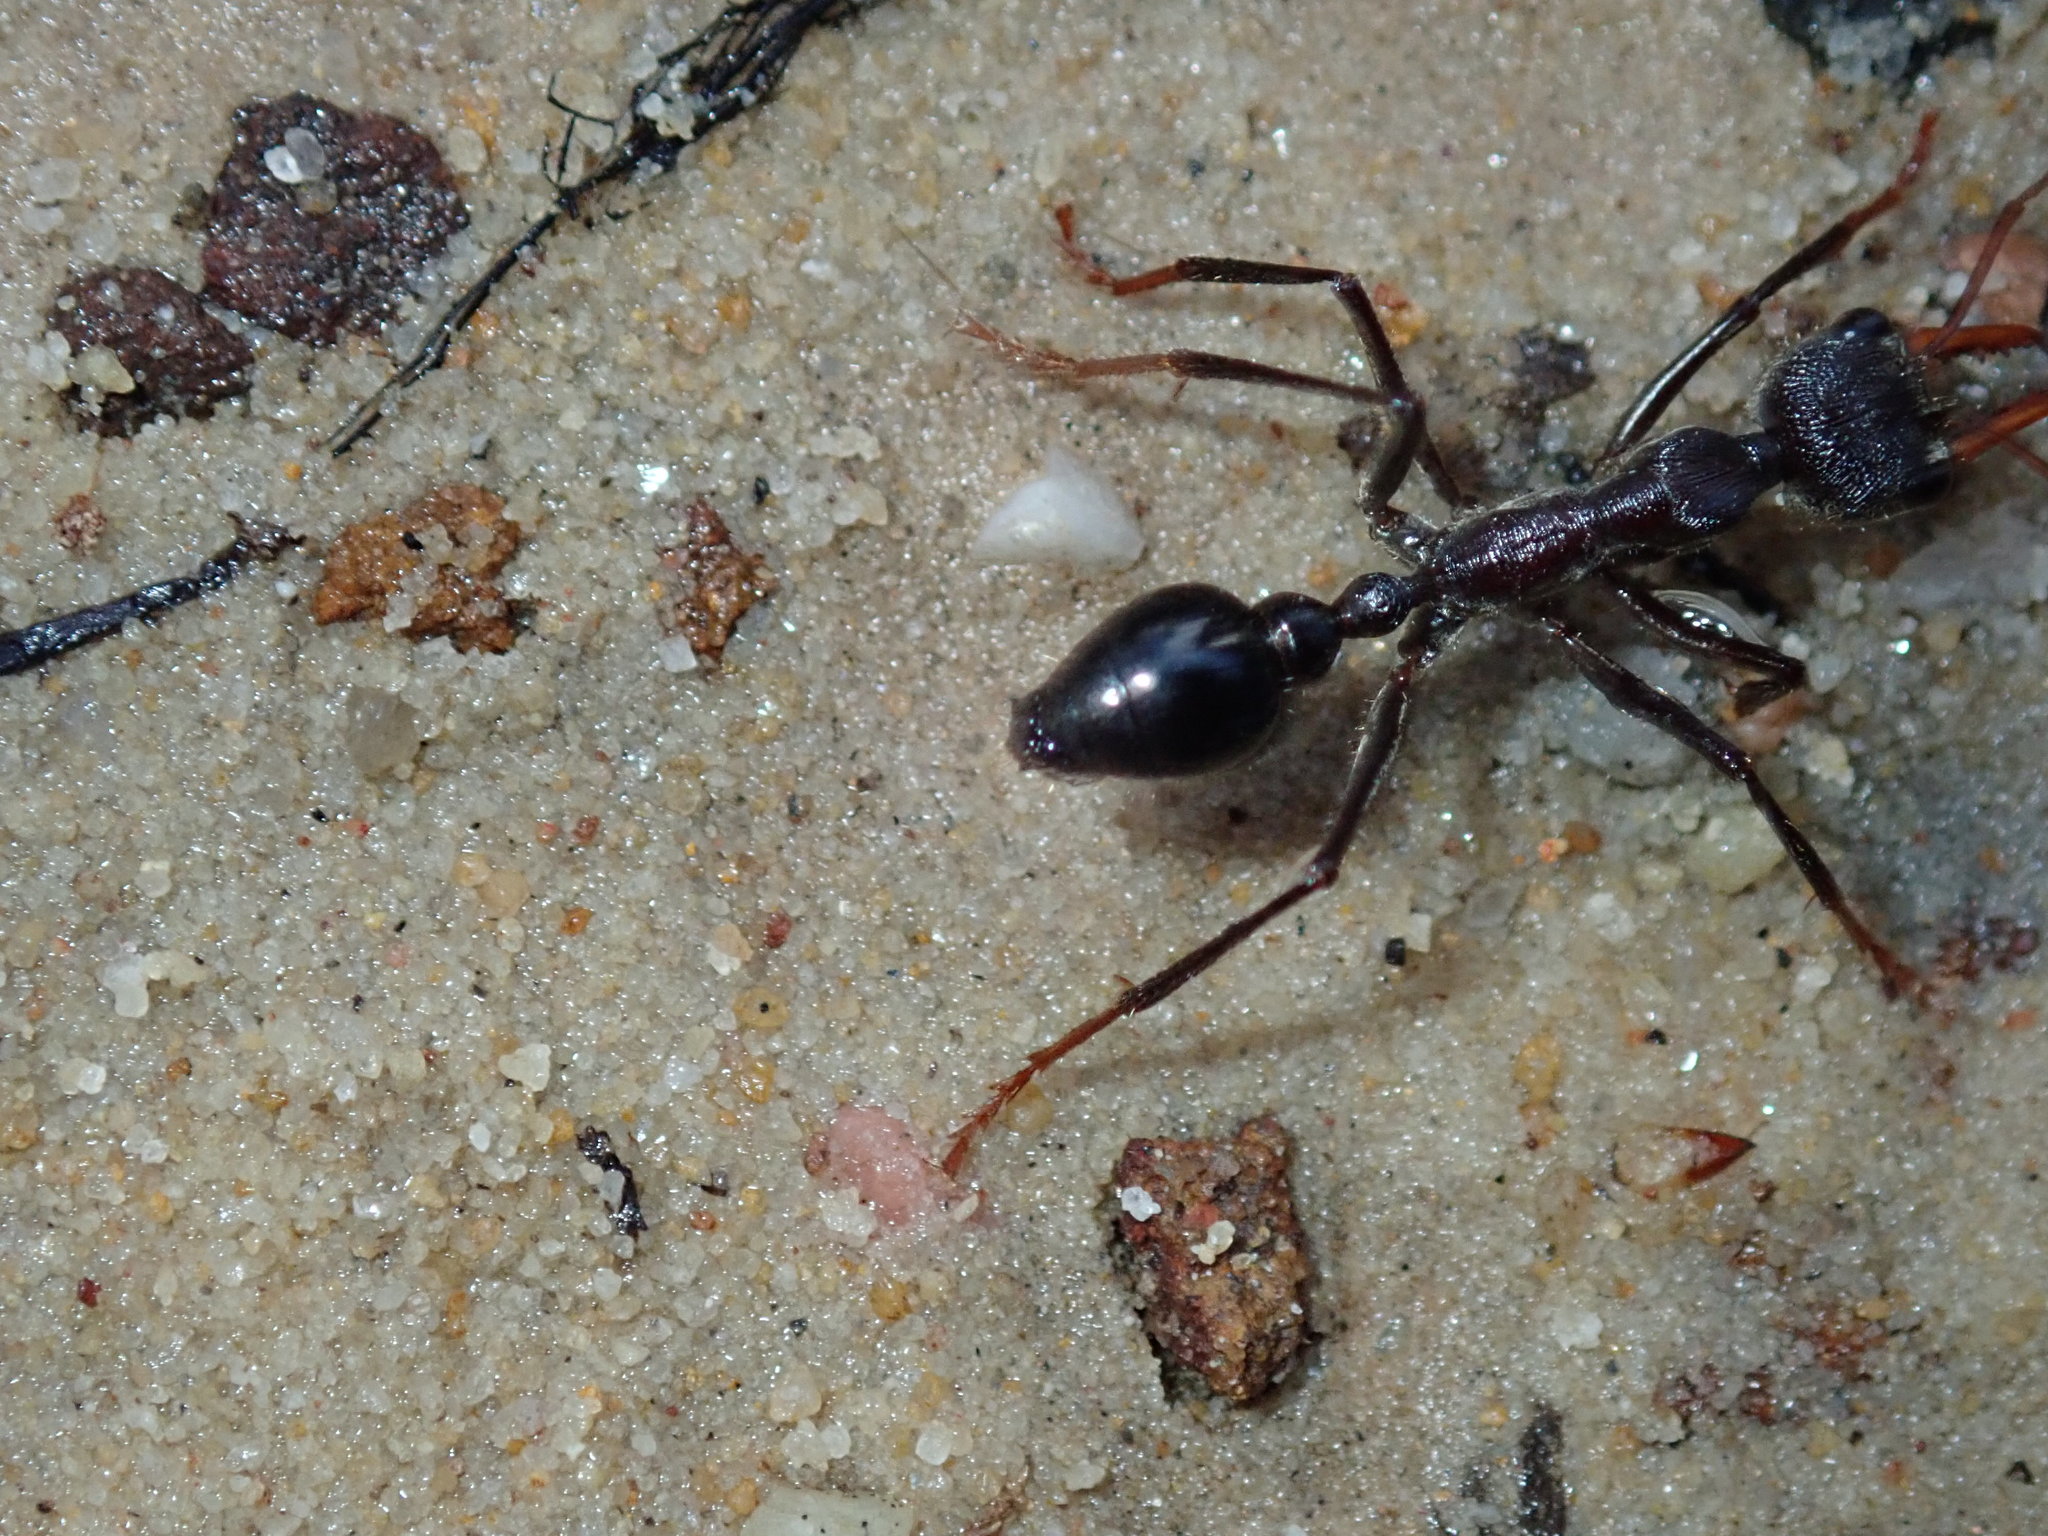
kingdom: Animalia
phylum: Arthropoda
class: Insecta
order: Hymenoptera
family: Formicidae
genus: Myrmecia
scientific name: Myrmecia simillima
